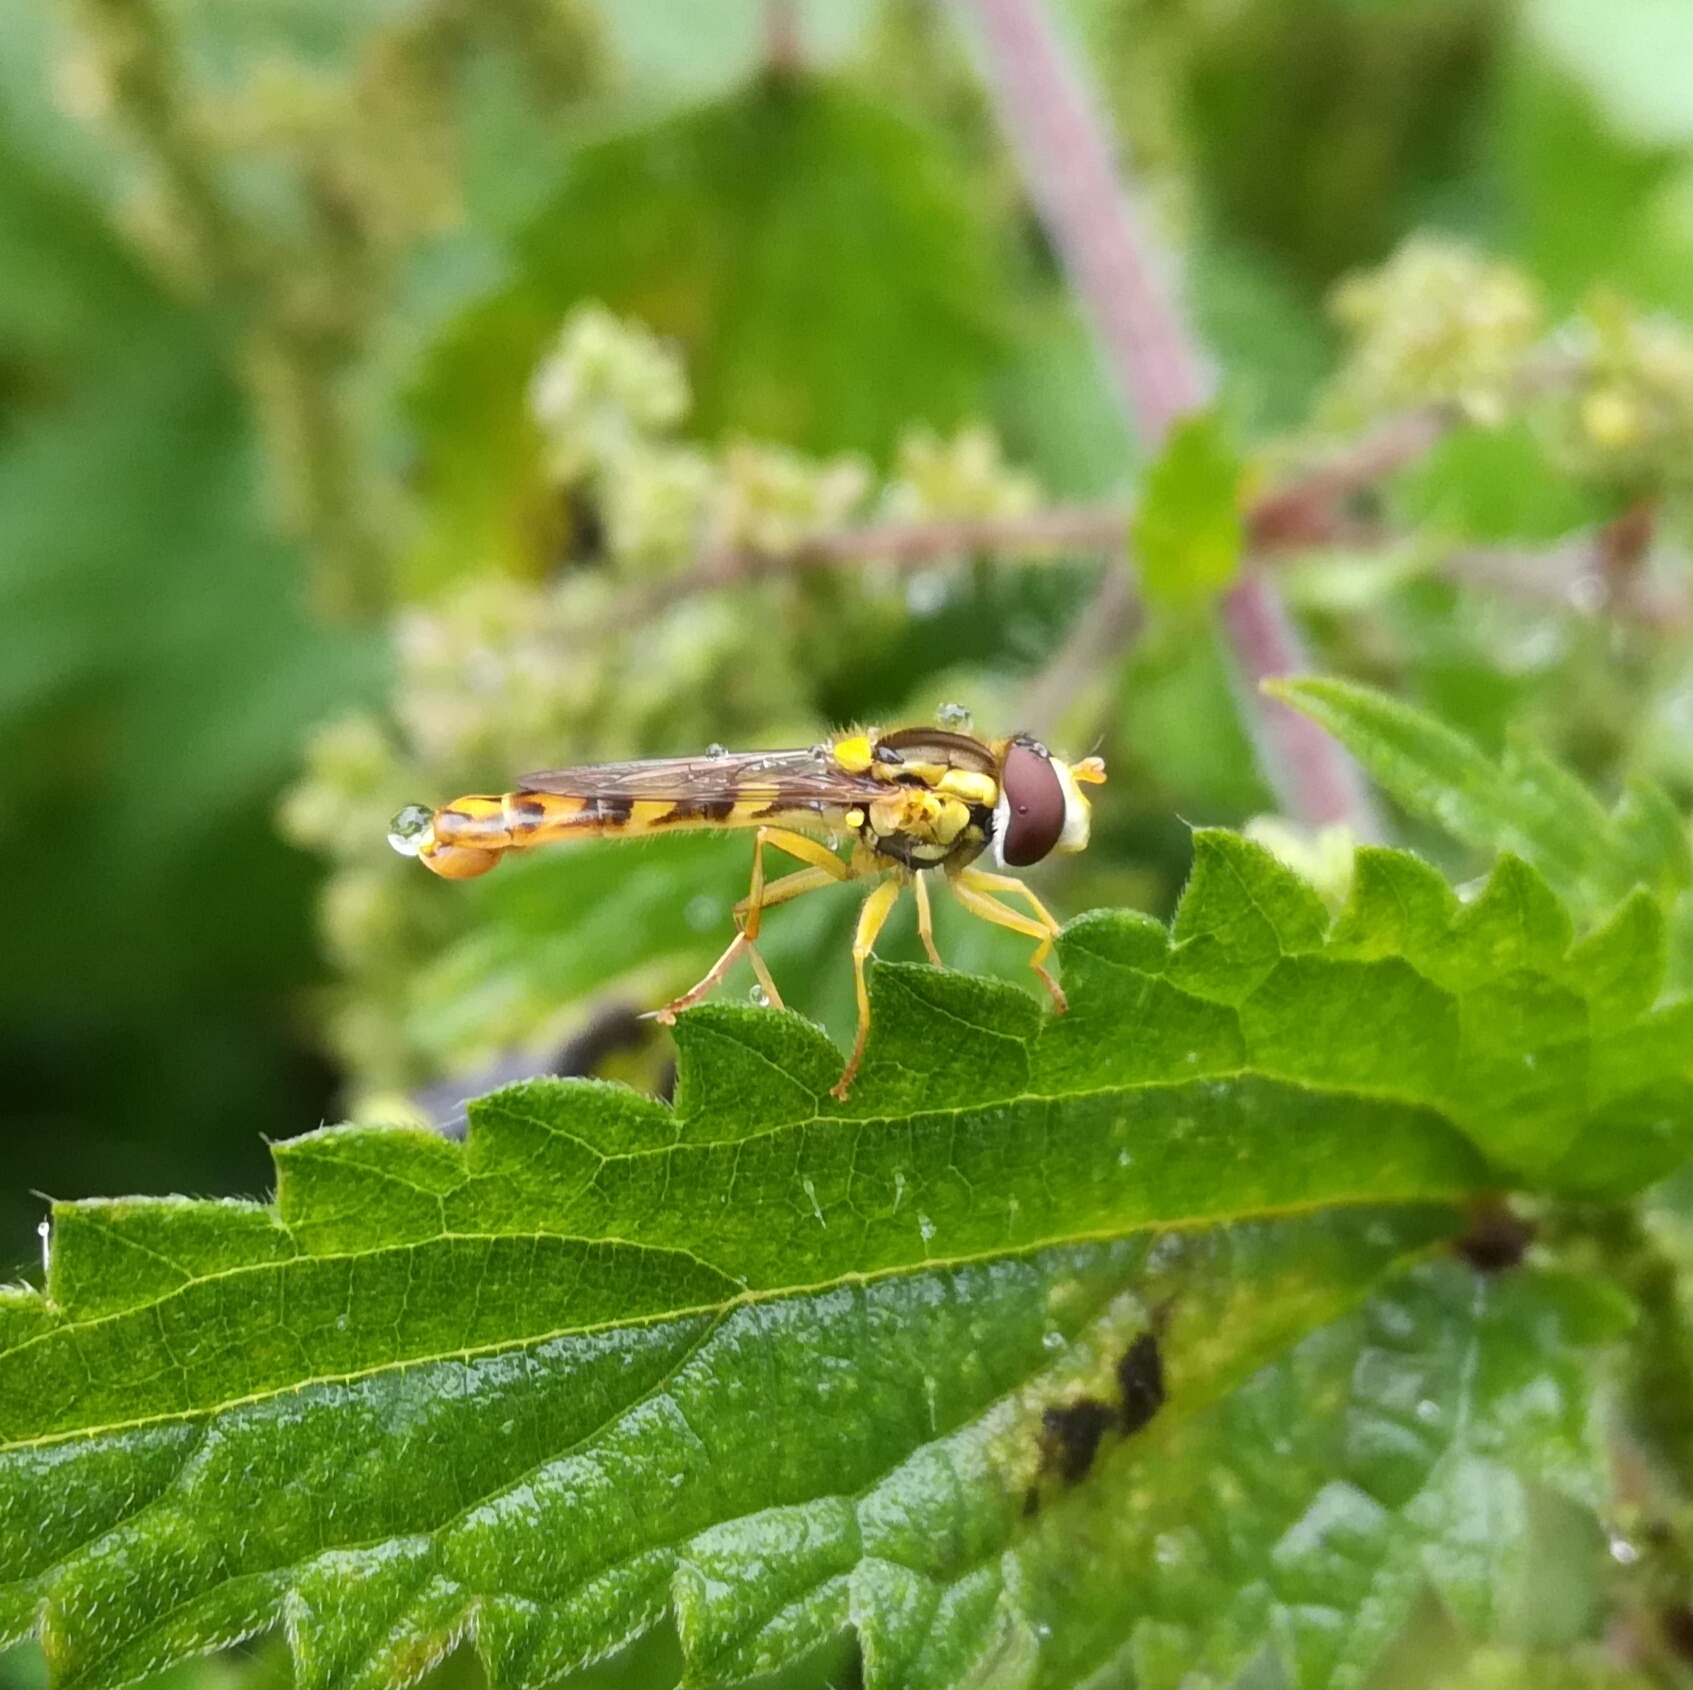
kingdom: Animalia
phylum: Arthropoda
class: Insecta
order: Diptera
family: Syrphidae
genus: Sphaerophoria
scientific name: Sphaerophoria scripta
